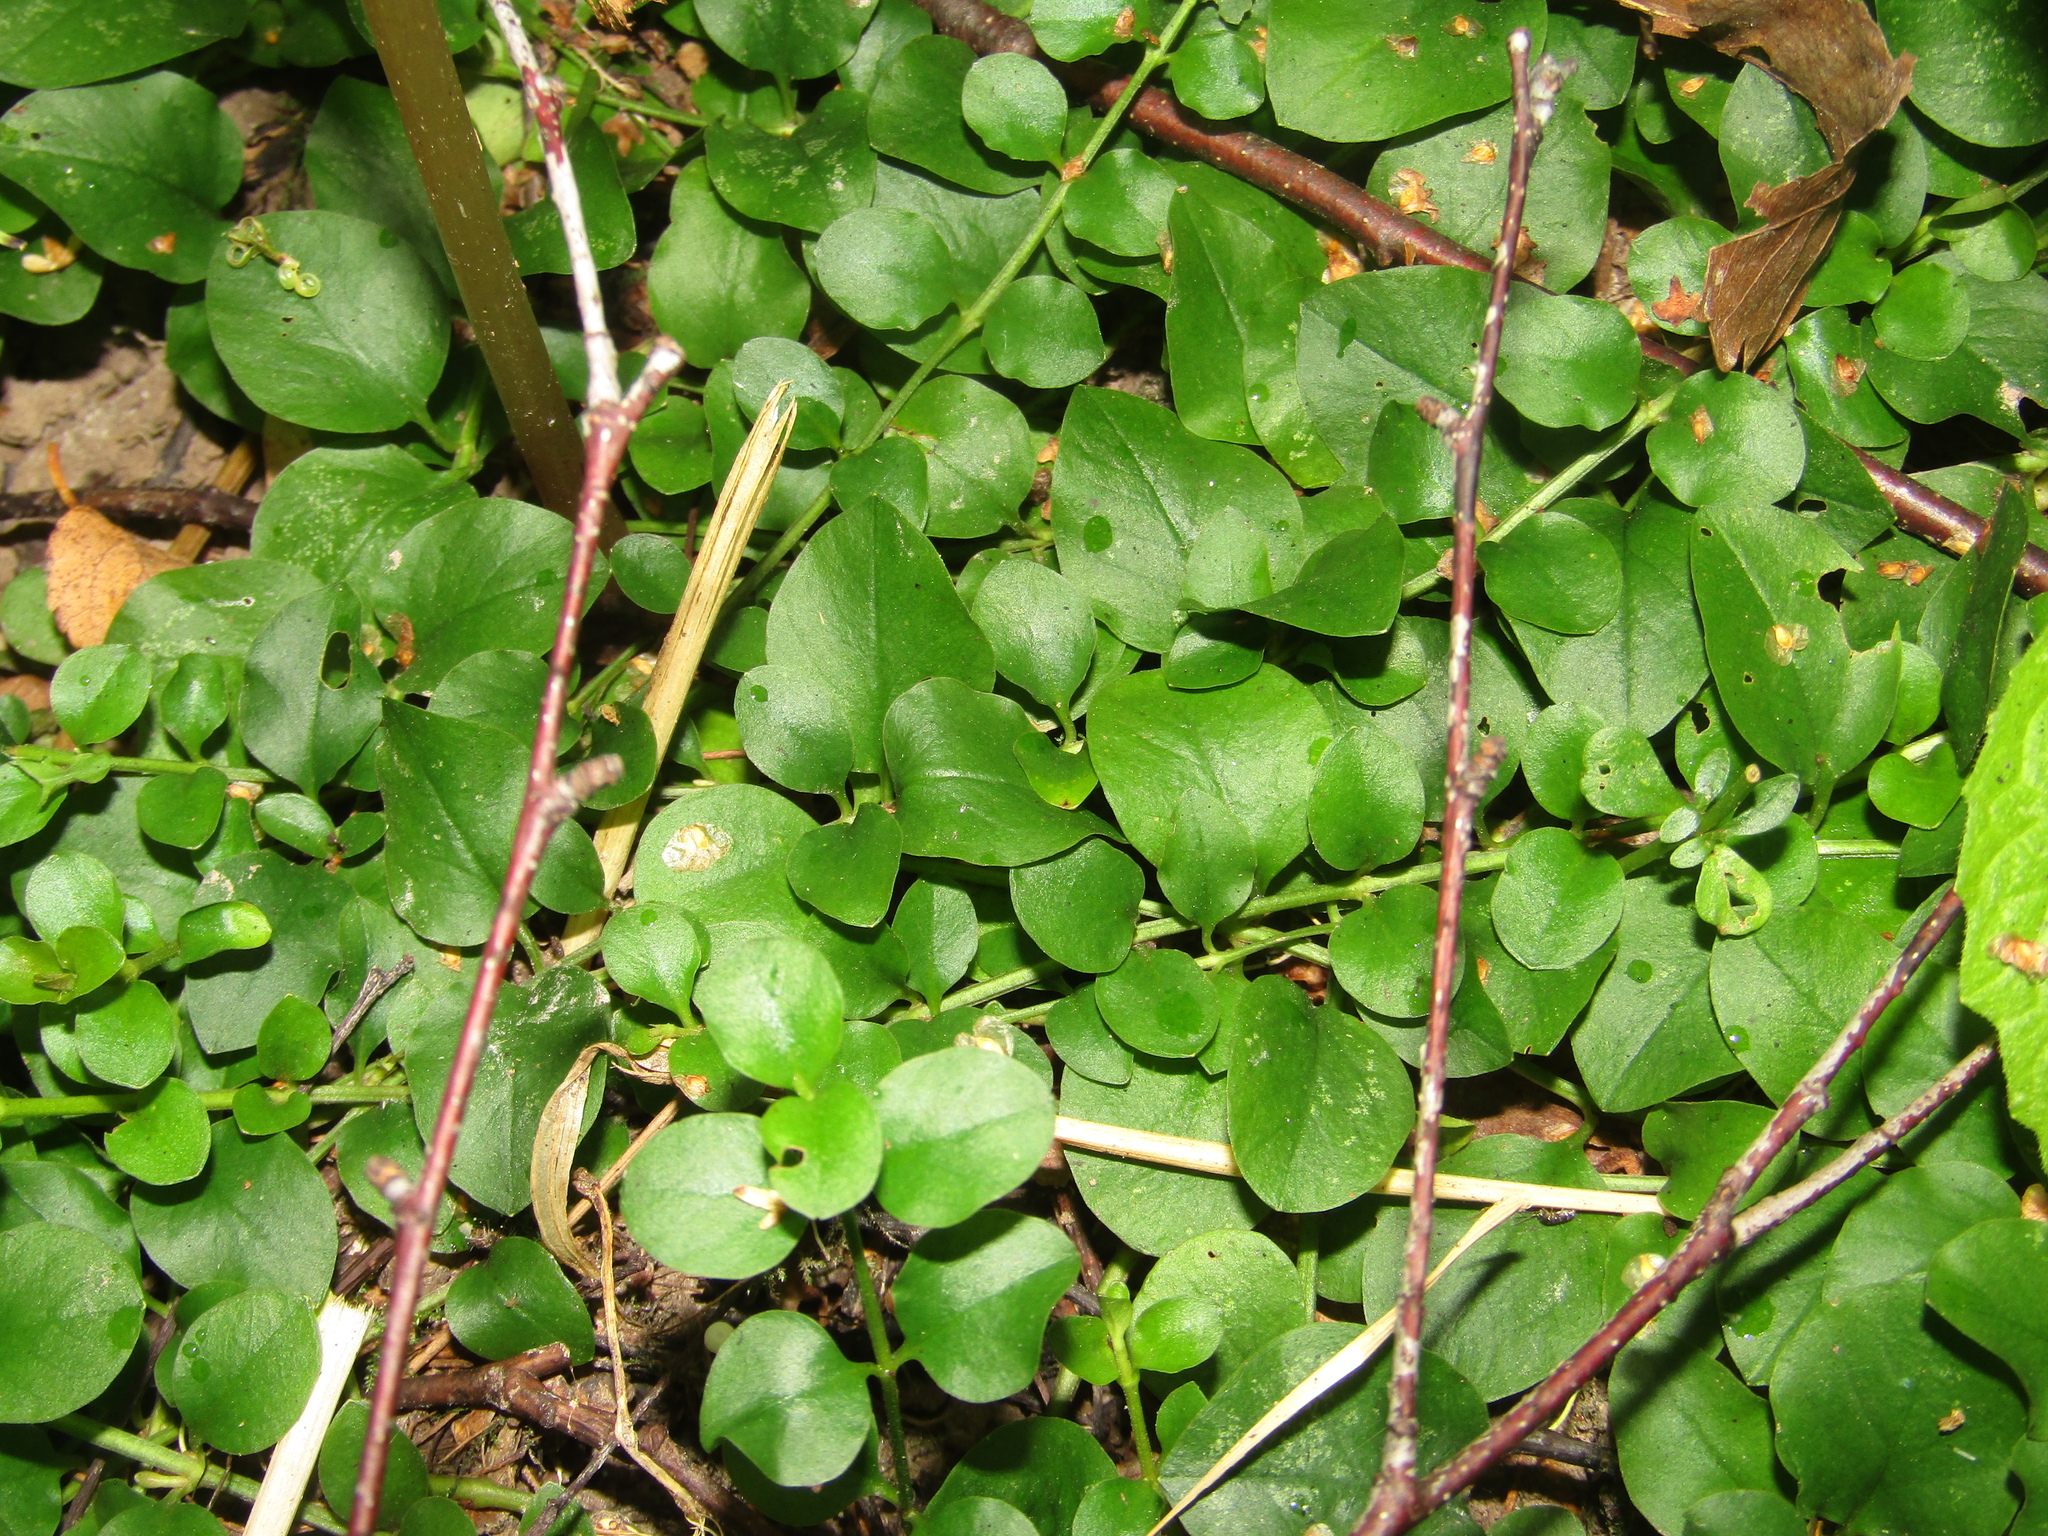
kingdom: Plantae
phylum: Tracheophyta
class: Magnoliopsida
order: Ericales
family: Primulaceae
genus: Lysimachia
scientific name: Lysimachia nummularia
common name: Moneywort
